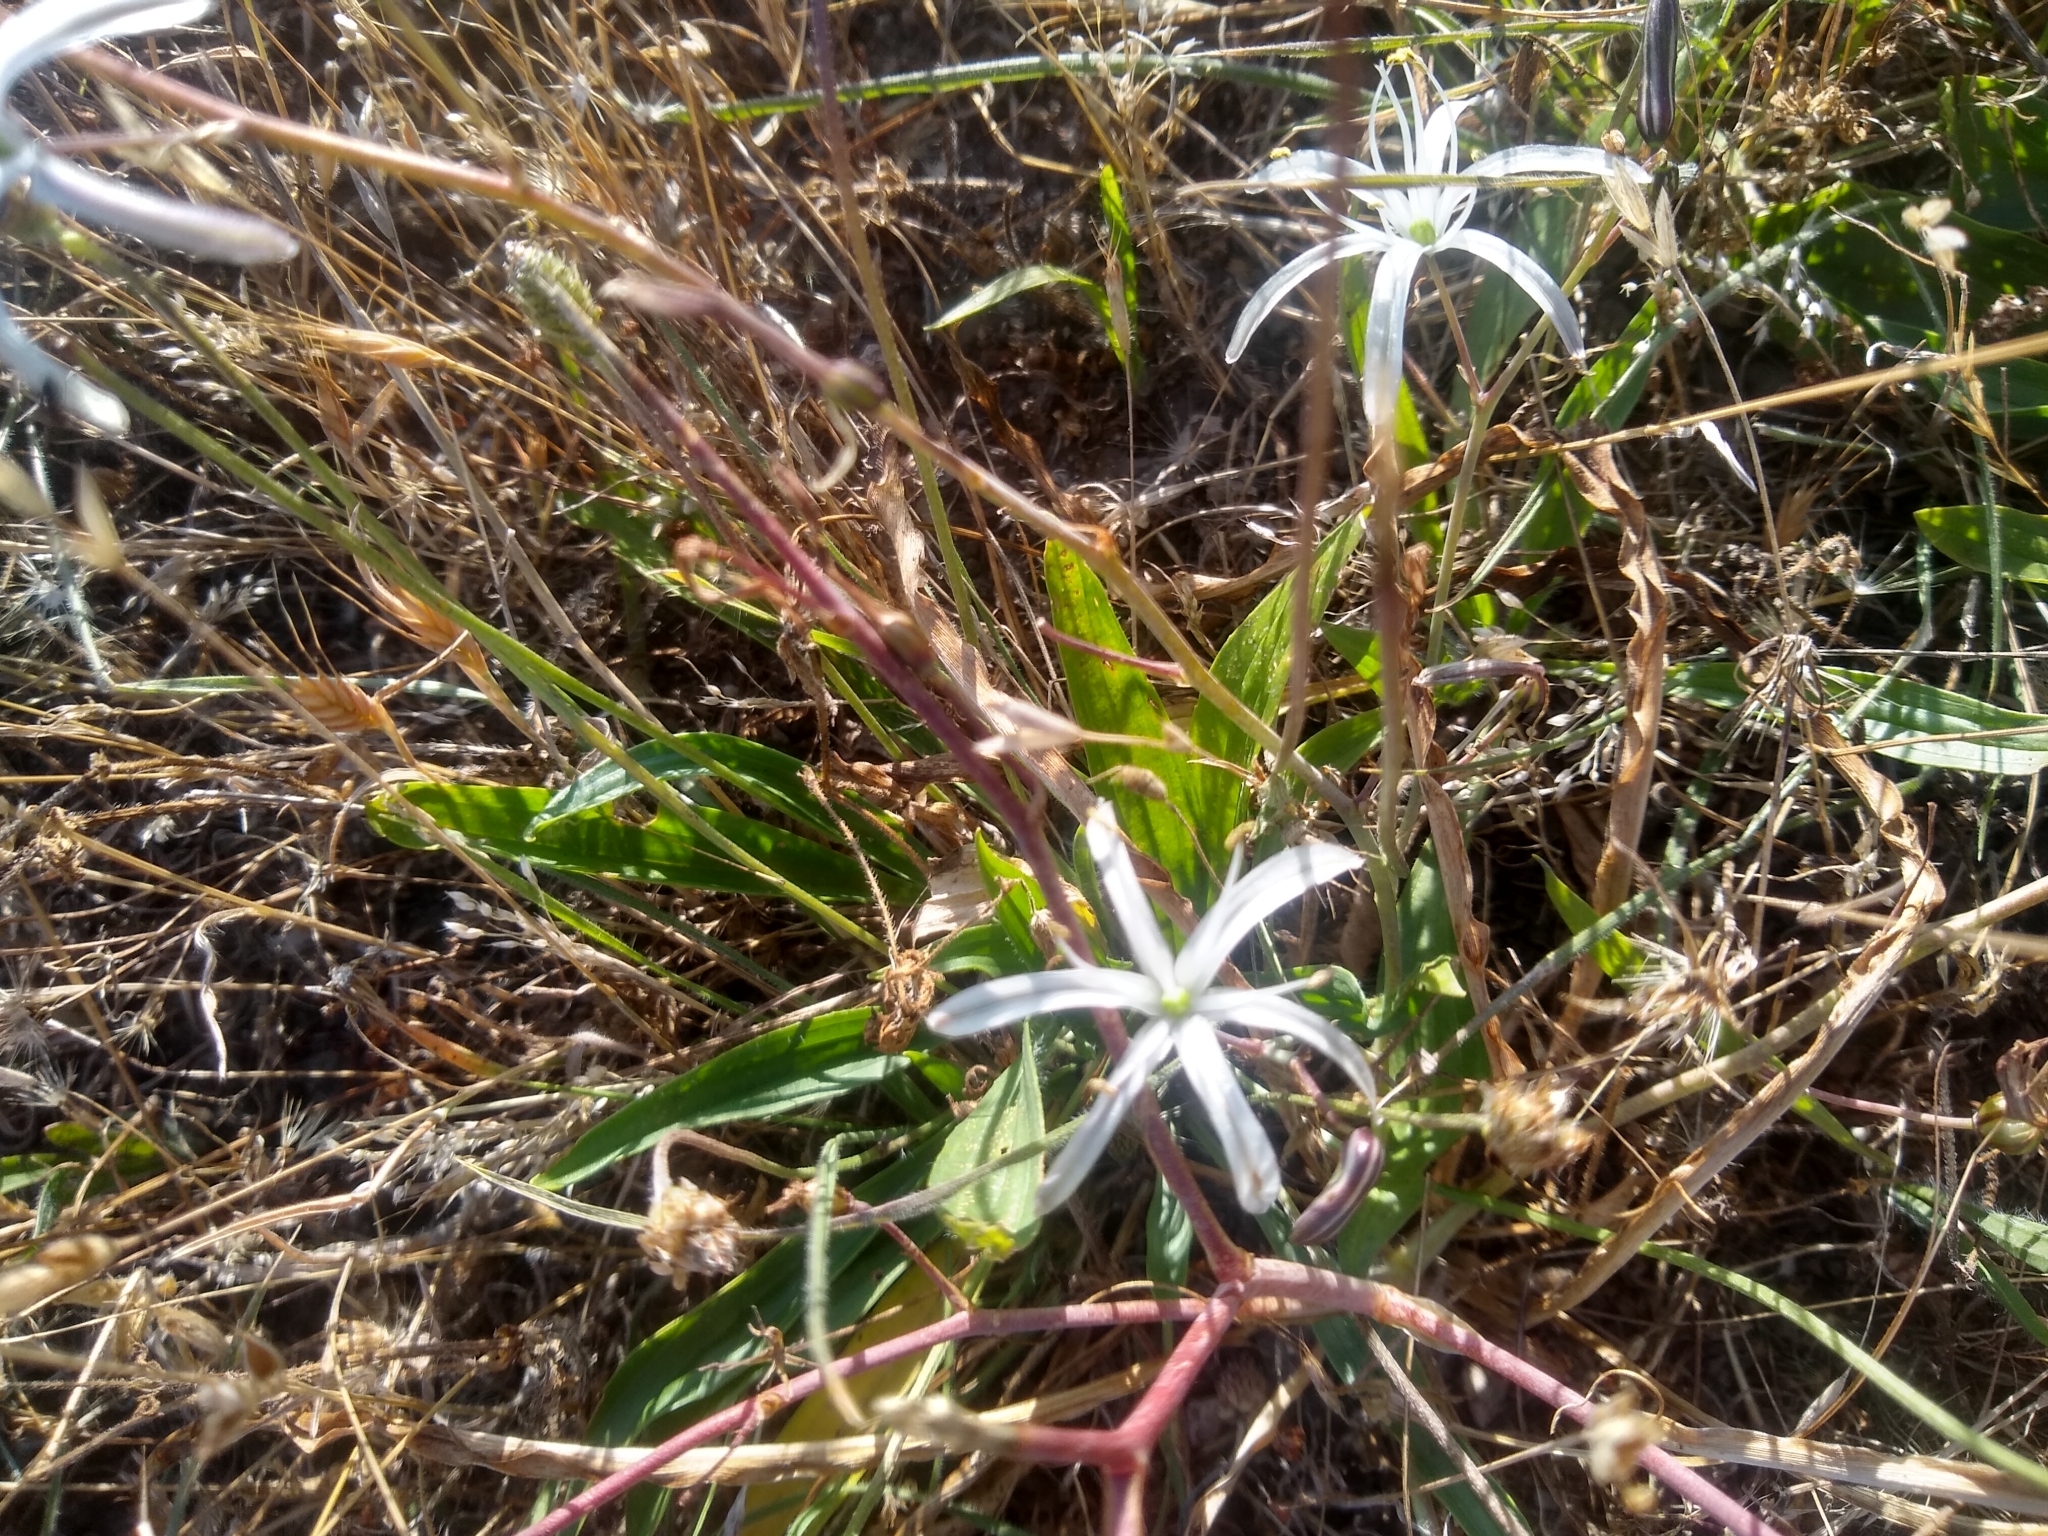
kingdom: Plantae
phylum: Tracheophyta
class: Liliopsida
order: Asparagales
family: Asparagaceae
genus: Chlorogalum
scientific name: Chlorogalum pomeridianum
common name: Amole
